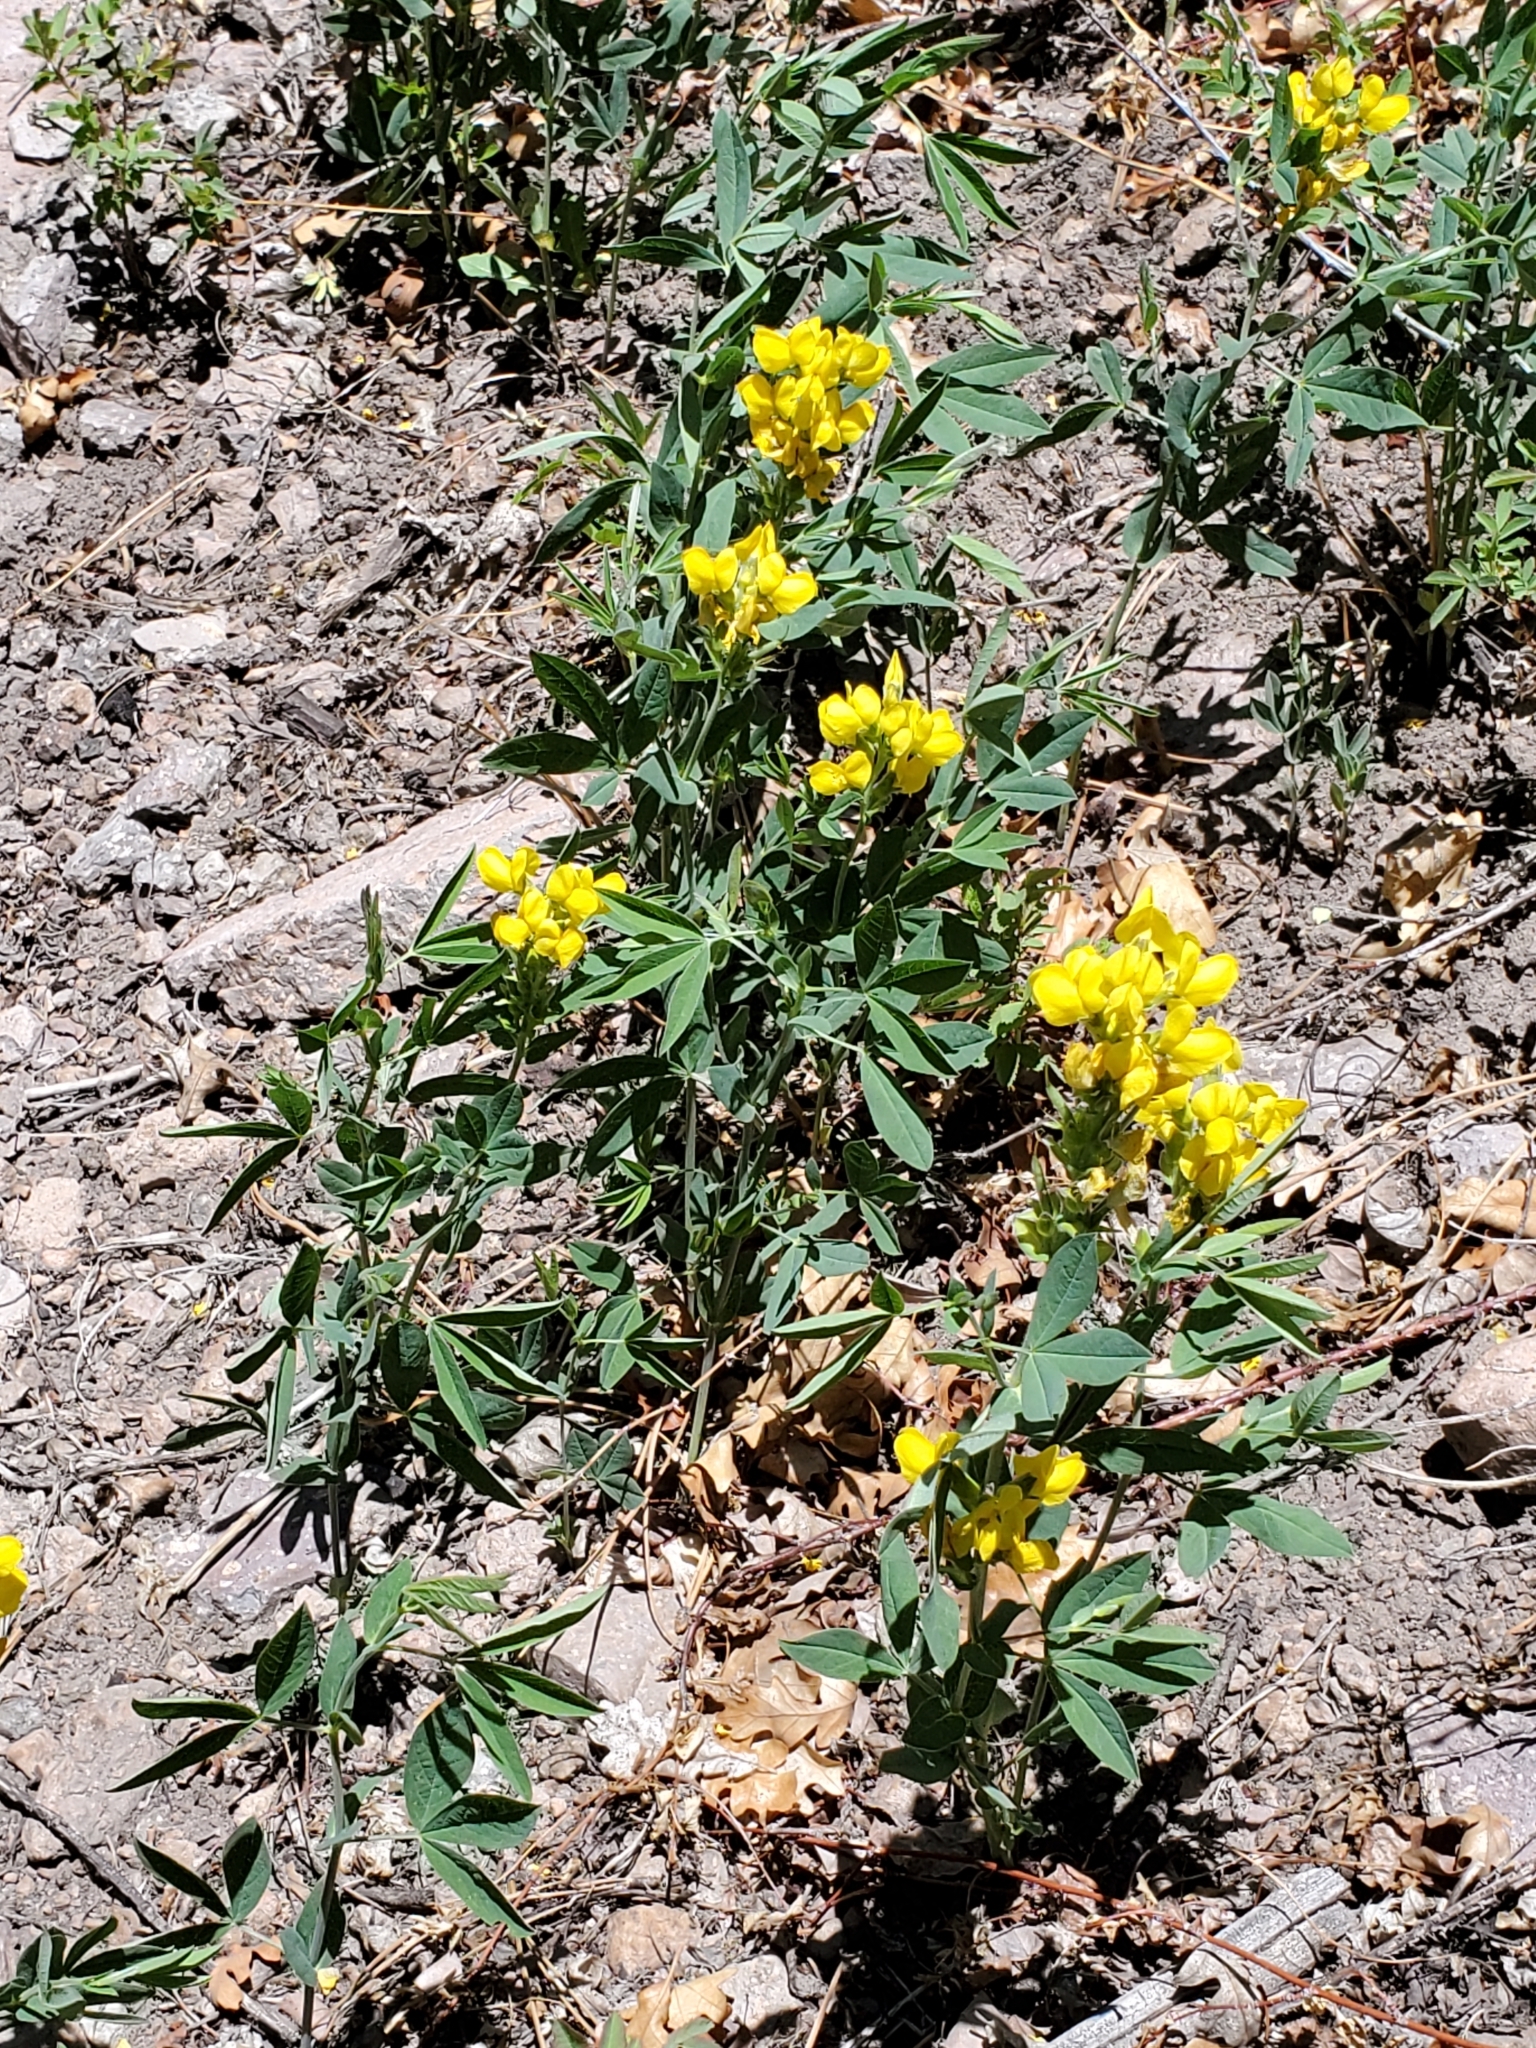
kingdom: Plantae
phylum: Tracheophyta
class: Magnoliopsida
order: Fabales
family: Fabaceae
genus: Thermopsis
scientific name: Thermopsis montana
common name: False lupin
